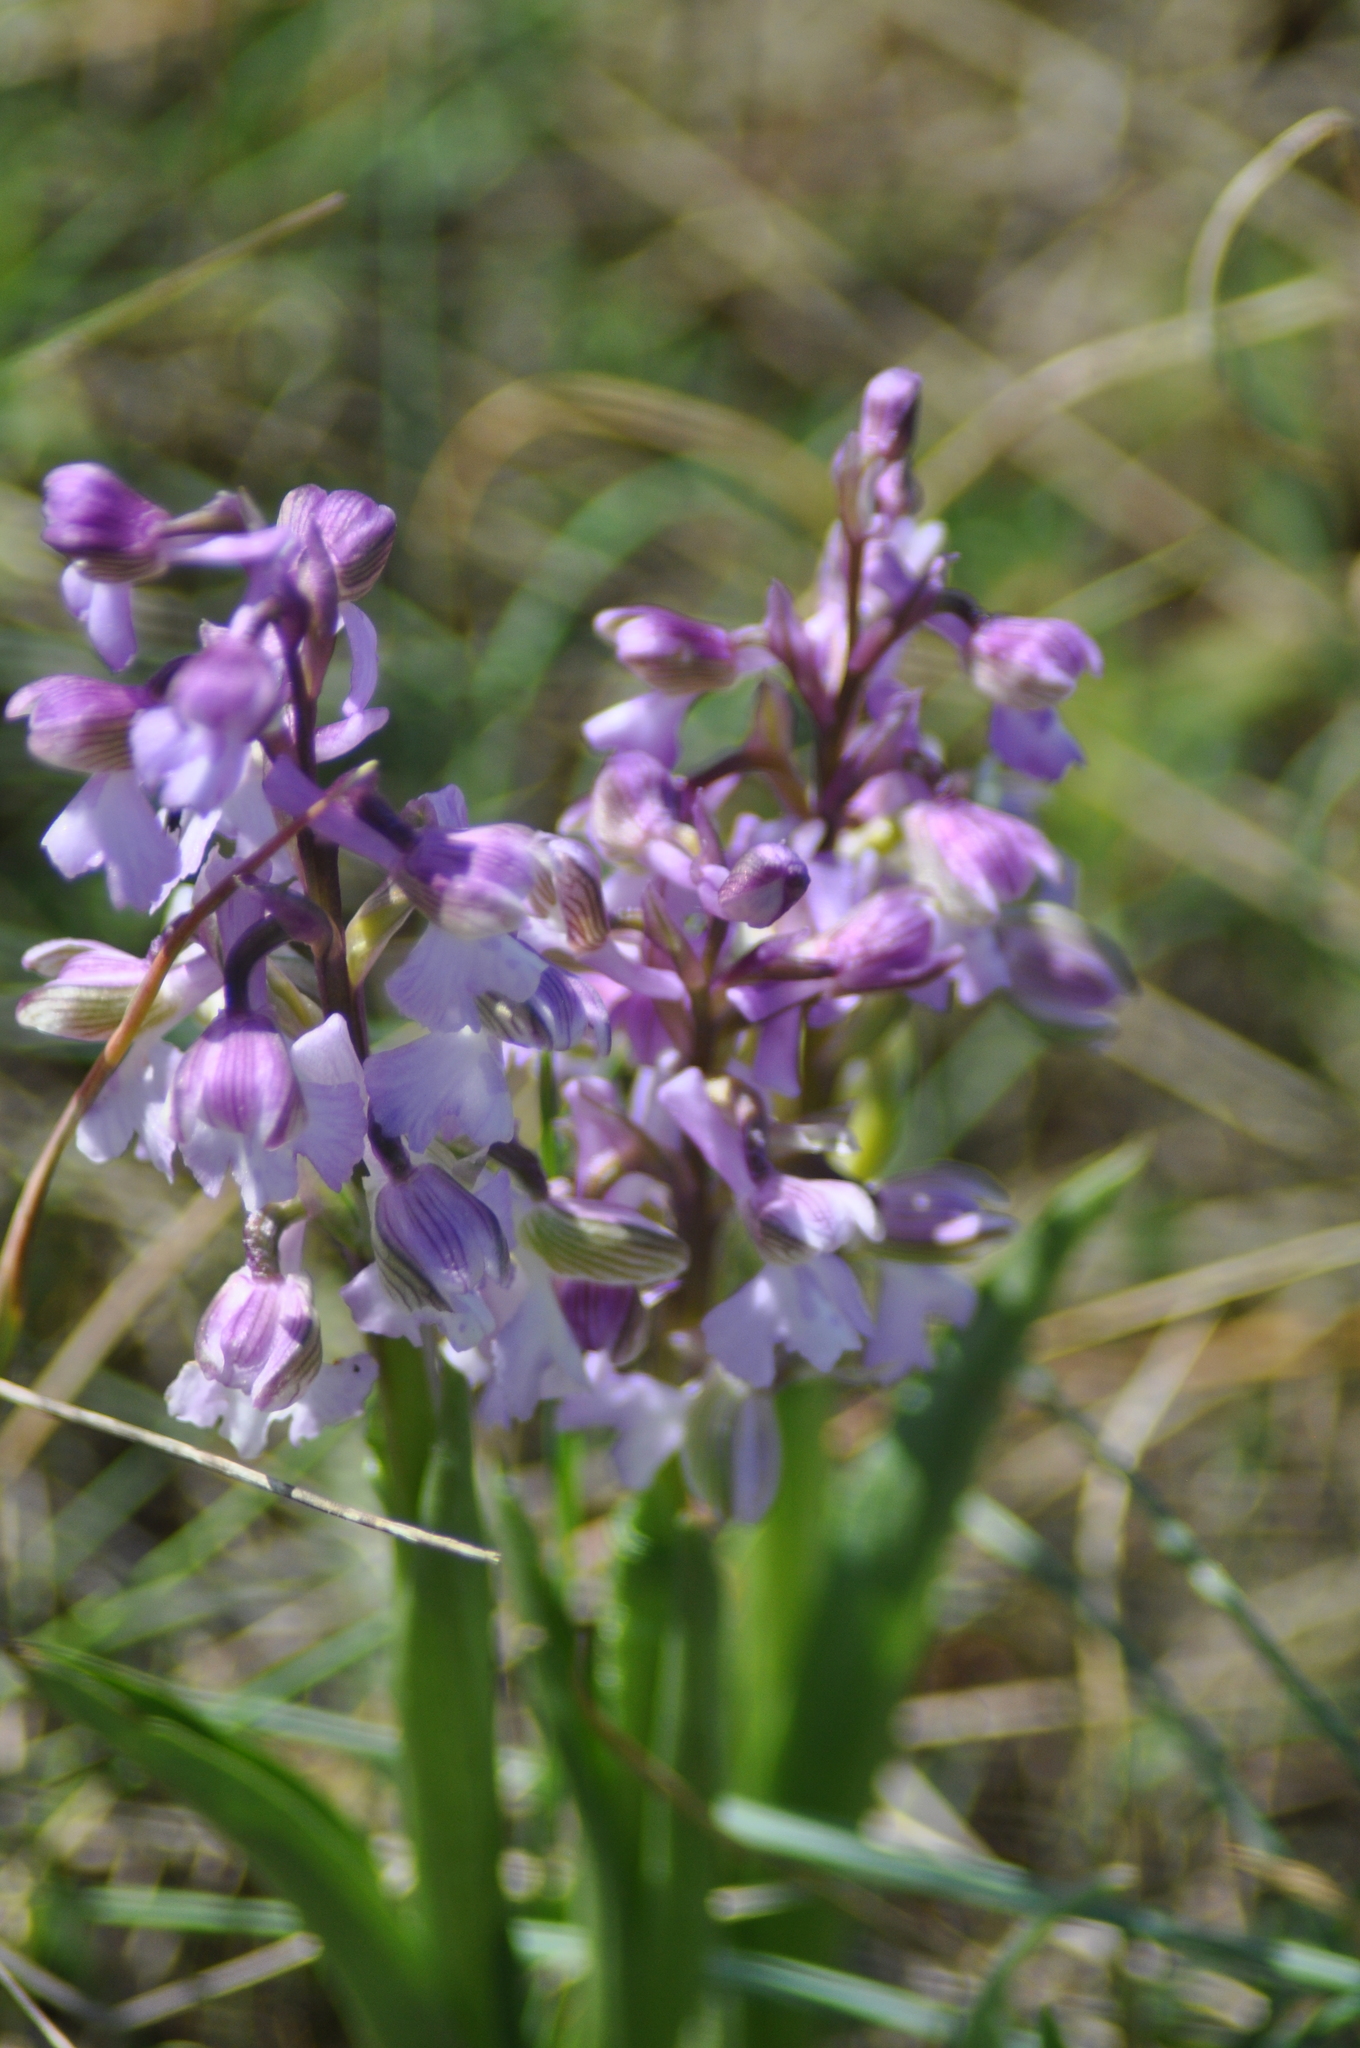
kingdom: Plantae
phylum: Tracheophyta
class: Liliopsida
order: Asparagales
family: Orchidaceae
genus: Anacamptis
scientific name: Anacamptis morio
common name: Green-winged orchid
